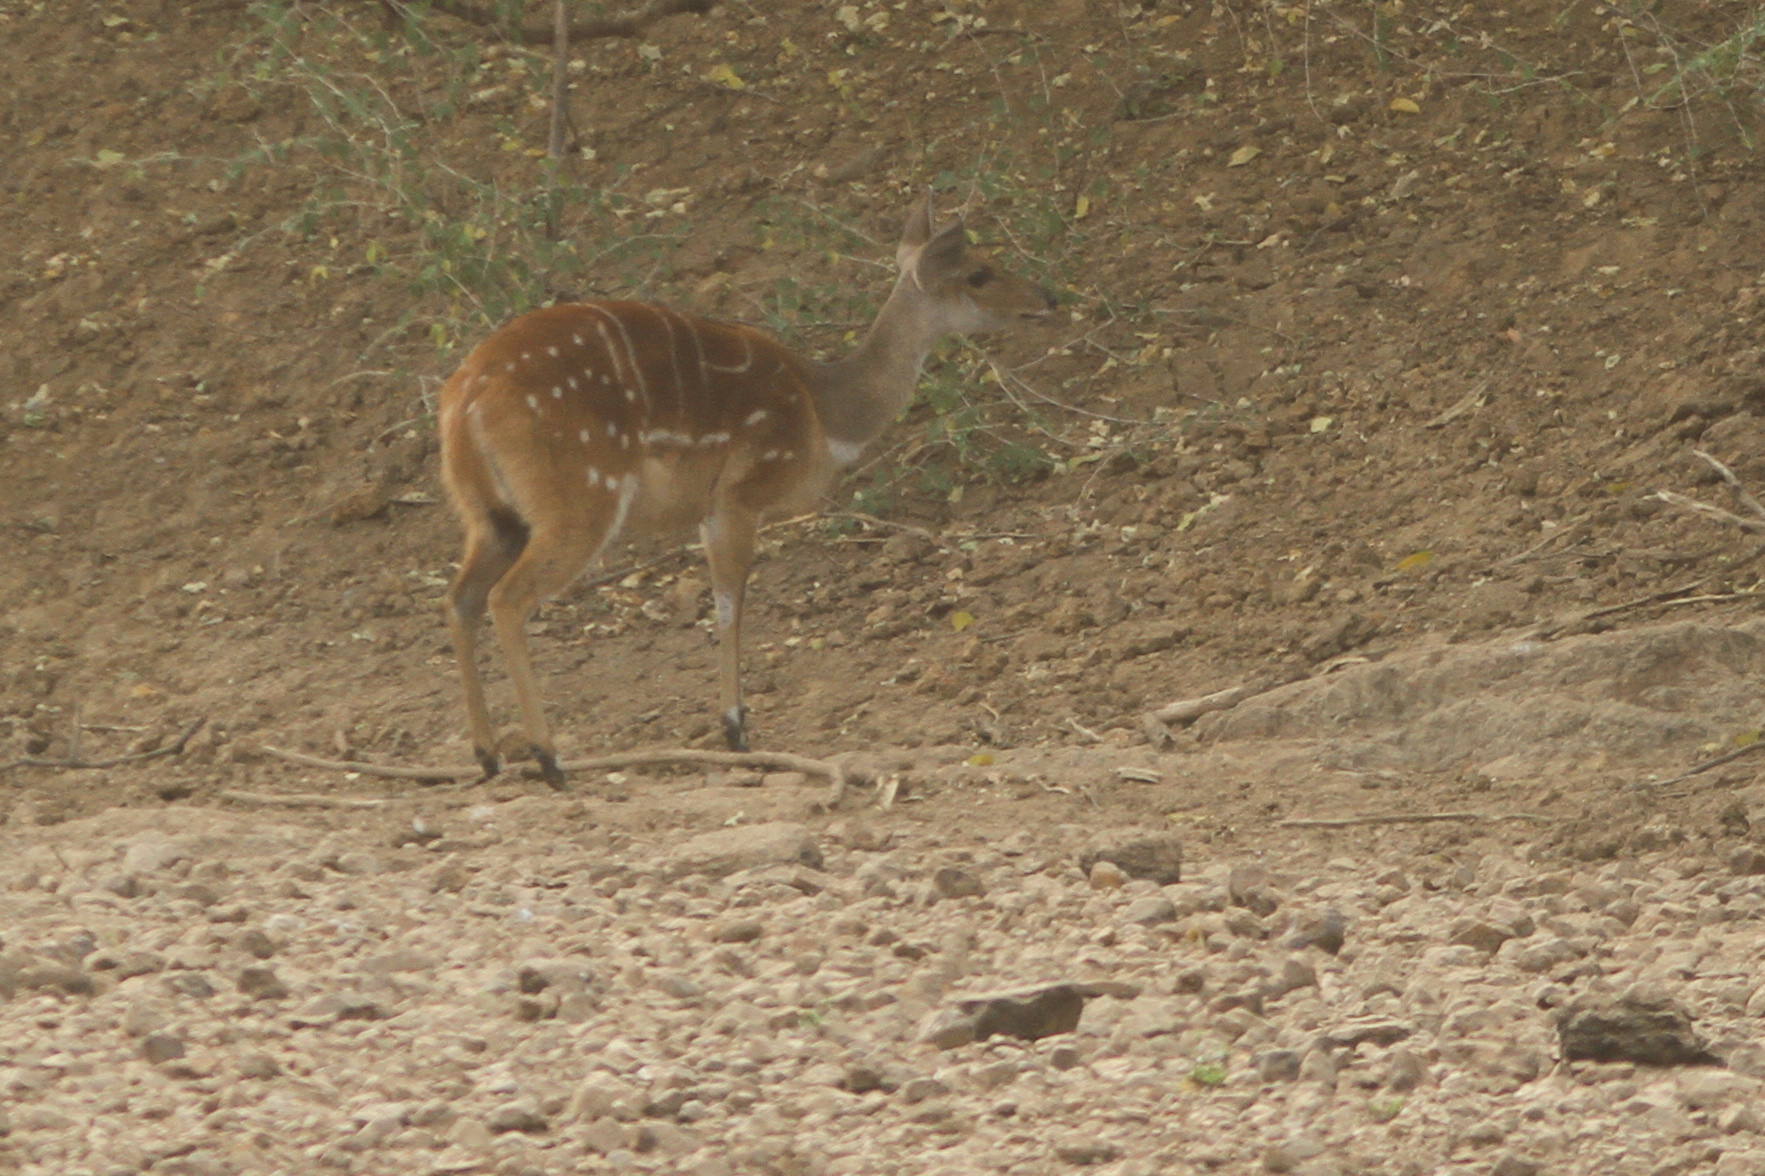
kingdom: Animalia
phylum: Chordata
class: Mammalia
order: Artiodactyla
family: Bovidae
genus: Tragelaphus
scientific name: Tragelaphus scriptus
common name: Bushbuck
